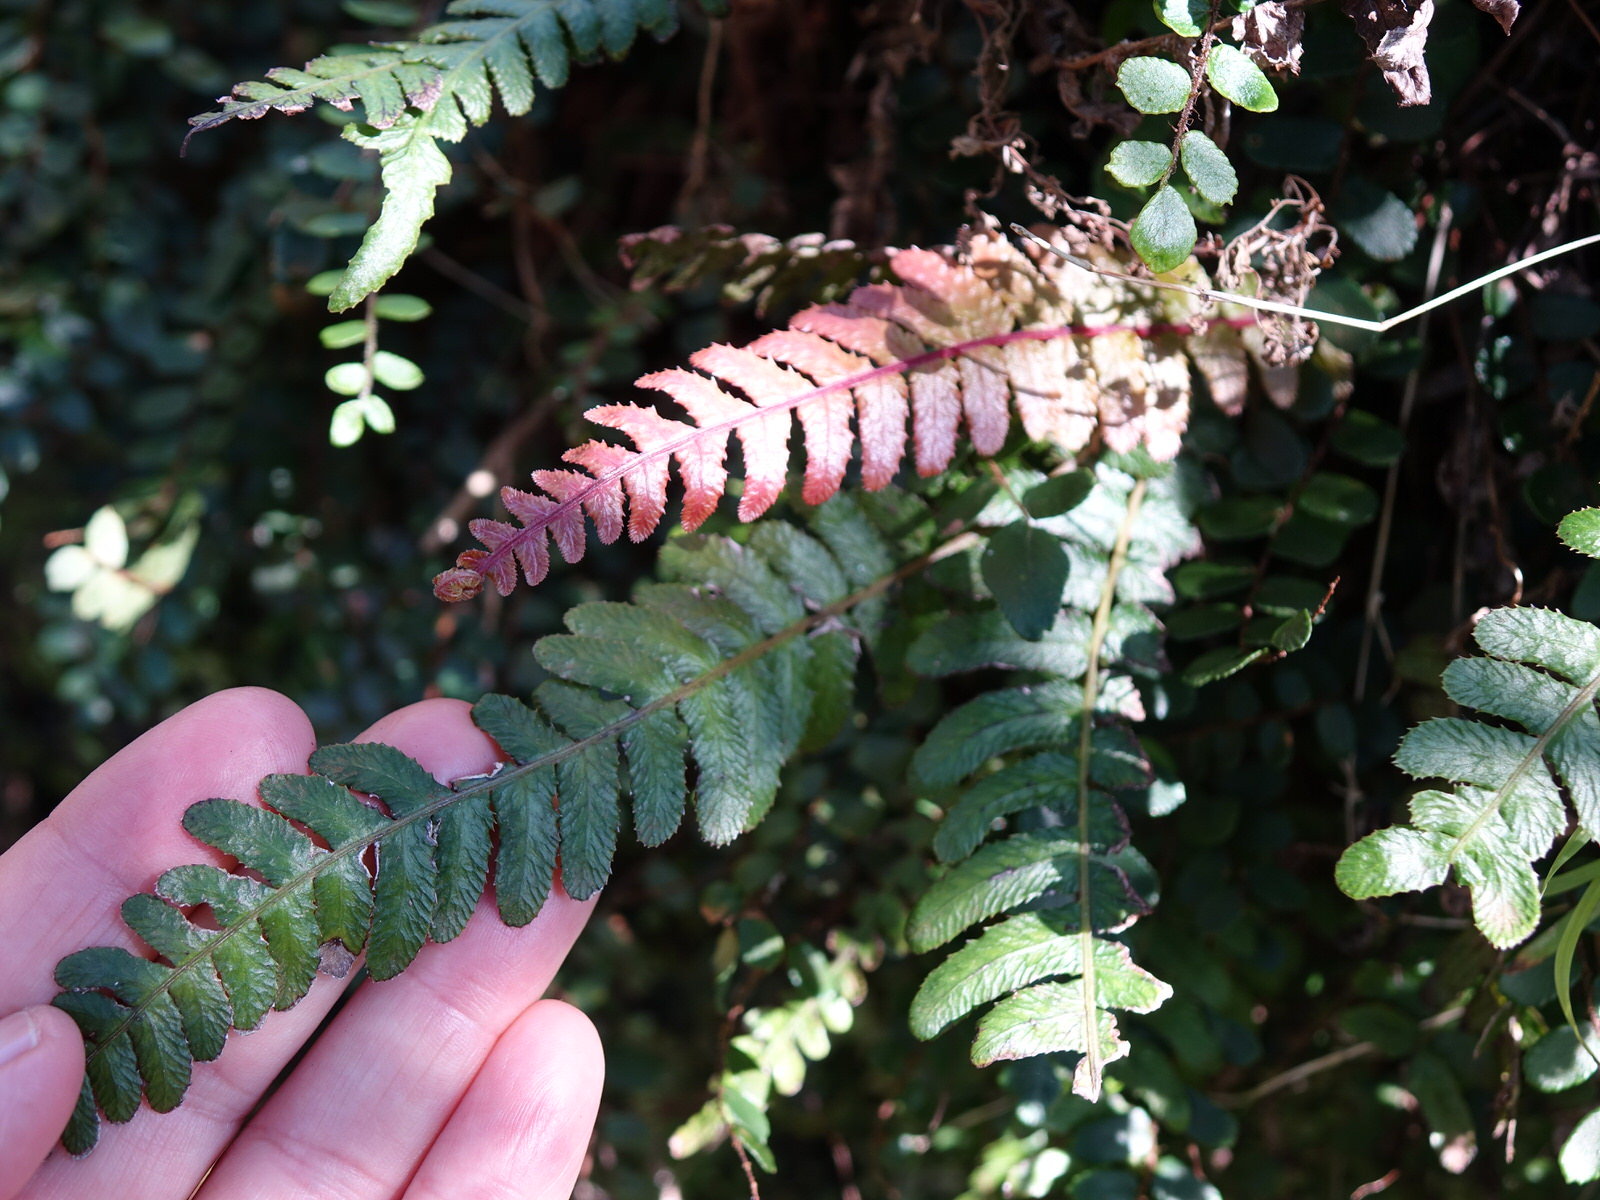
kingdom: Plantae
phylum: Tracheophyta
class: Polypodiopsida
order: Polypodiales
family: Blechnaceae
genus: Doodia
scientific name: Doodia australis
